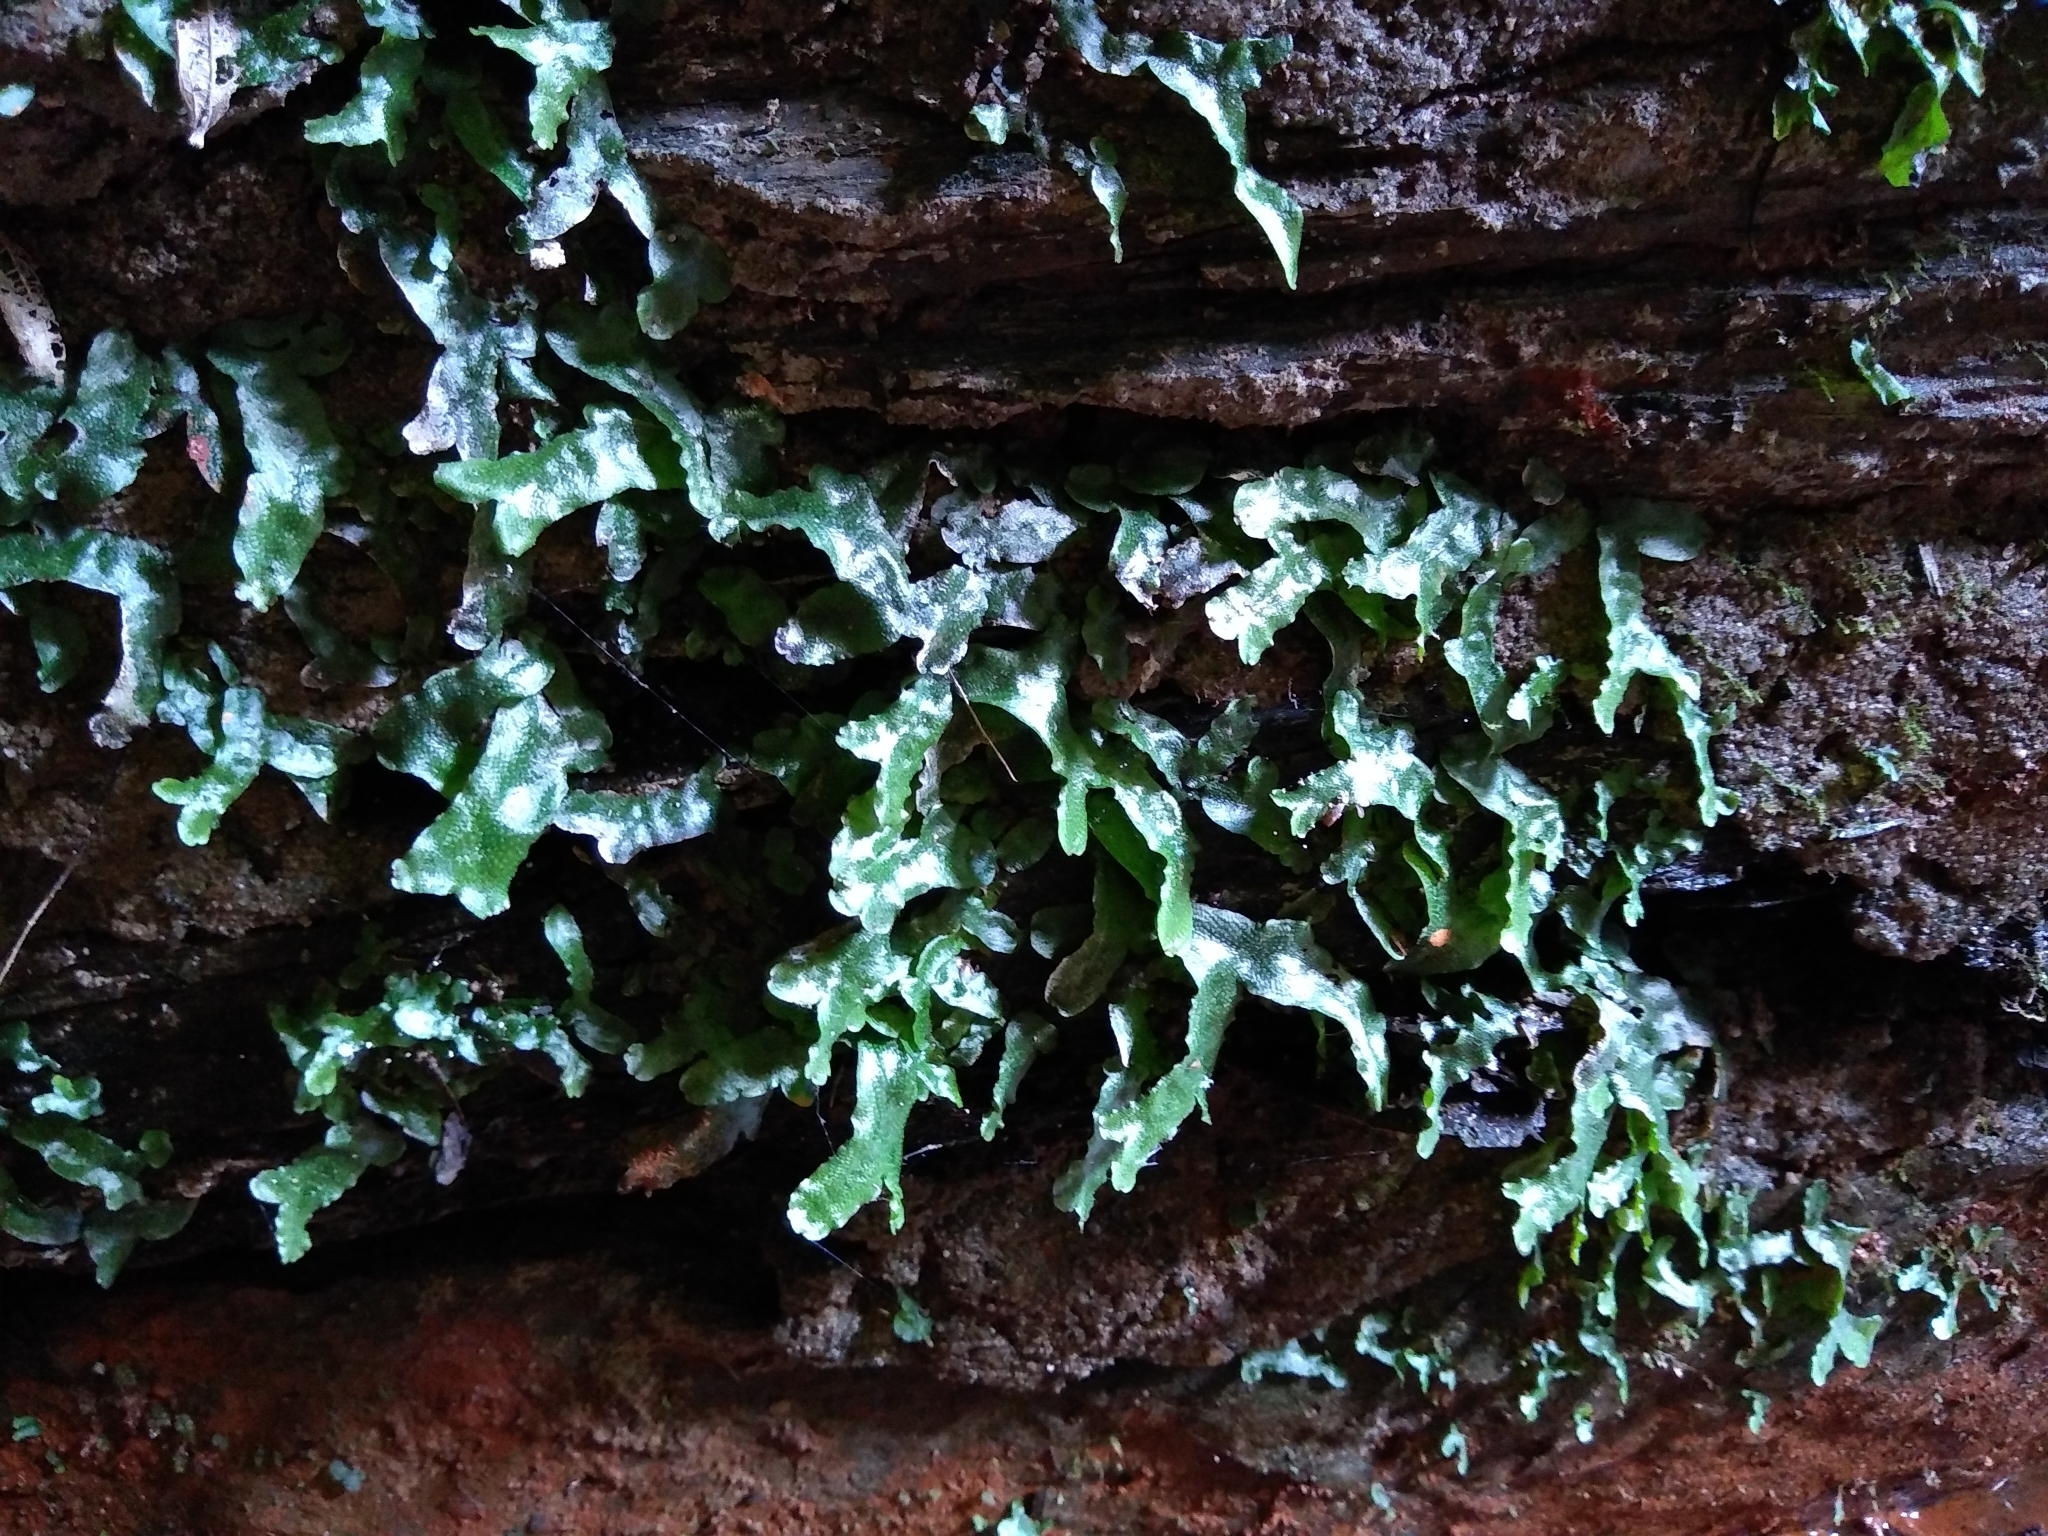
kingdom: Plantae
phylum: Marchantiophyta
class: Marchantiopsida
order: Marchantiales
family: Conocephalaceae
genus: Conocephalum
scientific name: Conocephalum conicum
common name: Great scented liverwort
